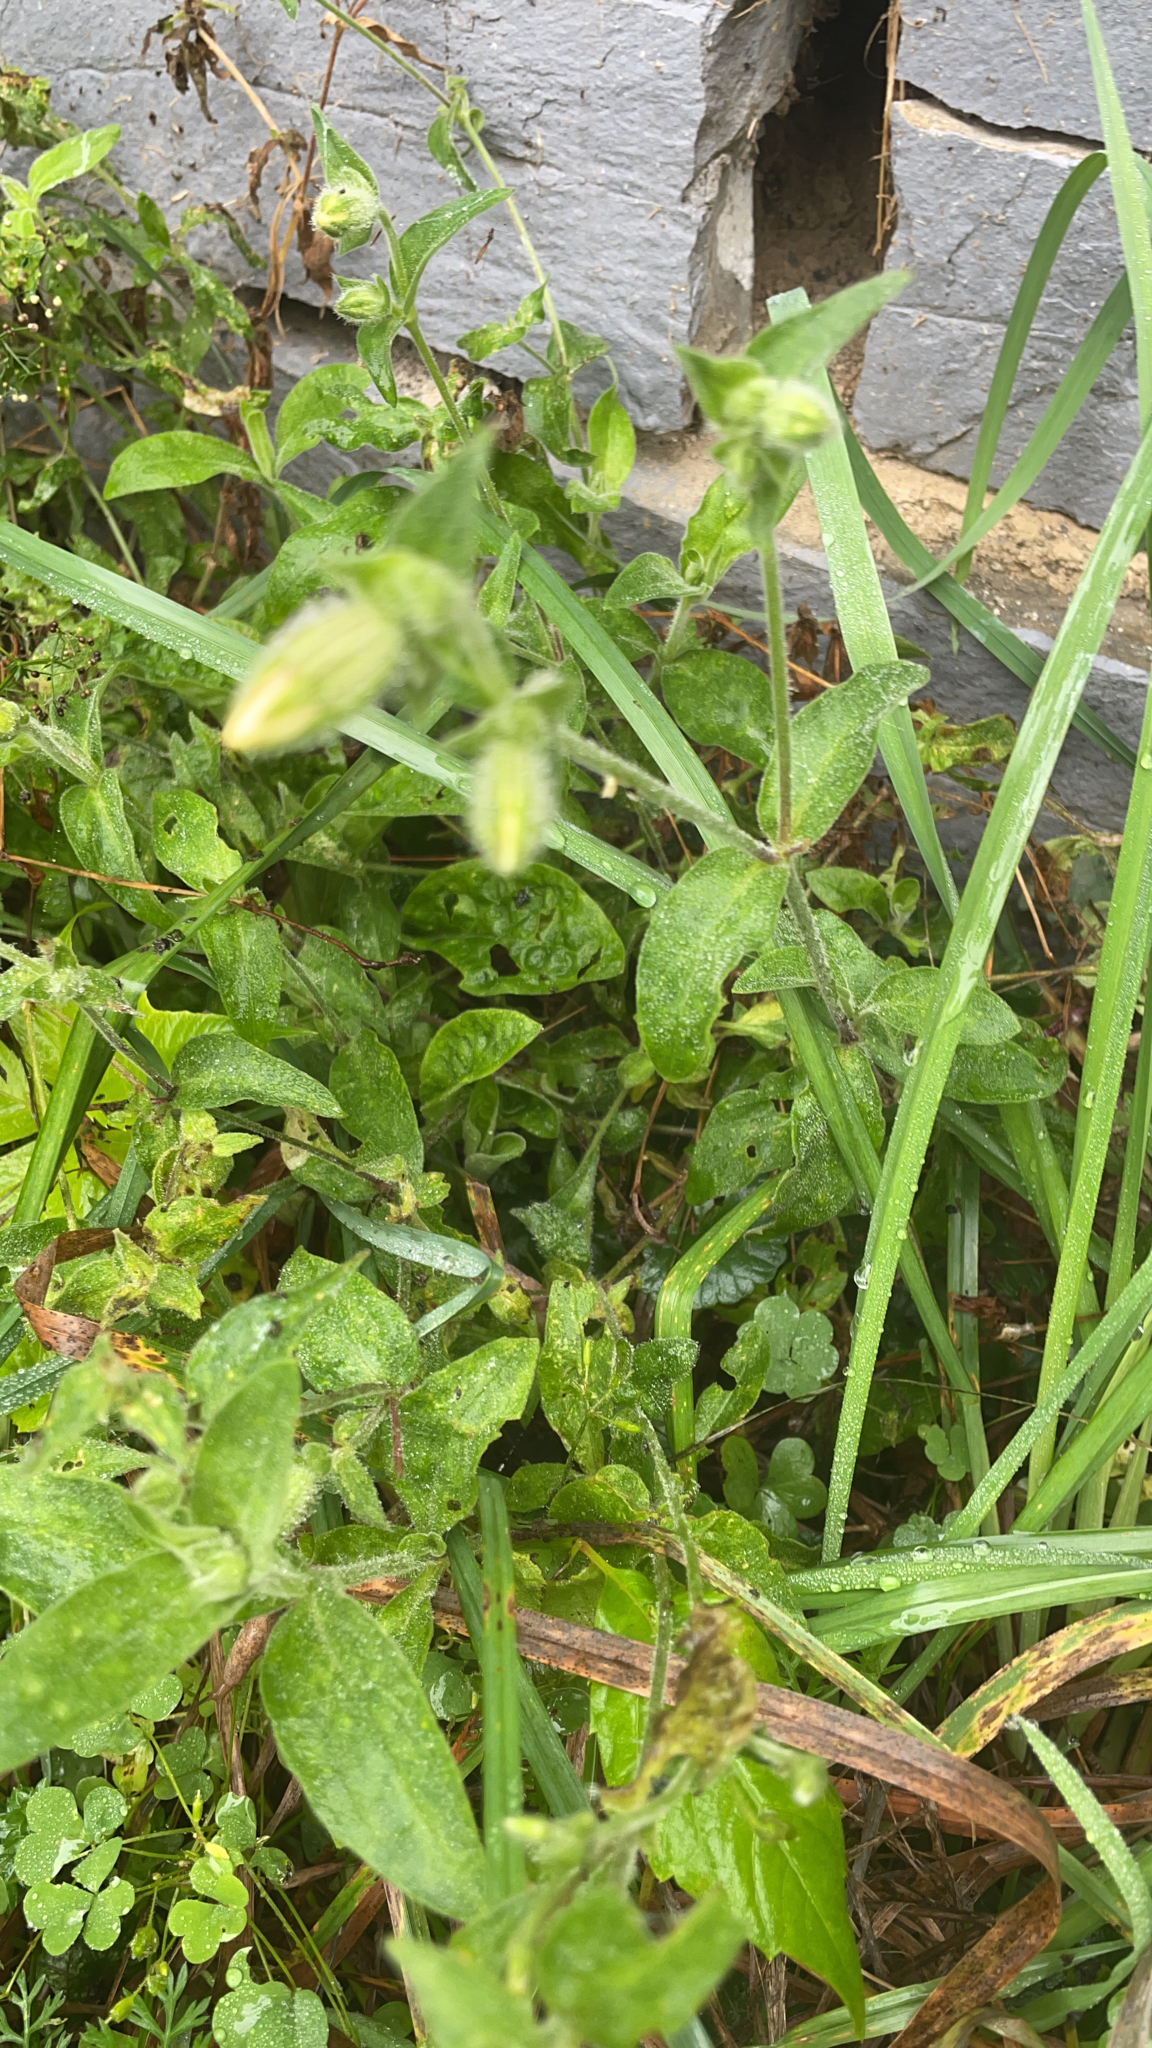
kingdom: Plantae
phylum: Tracheophyta
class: Magnoliopsida
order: Caryophyllales
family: Caryophyllaceae
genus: Silene
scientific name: Silene latifolia
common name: White campion
